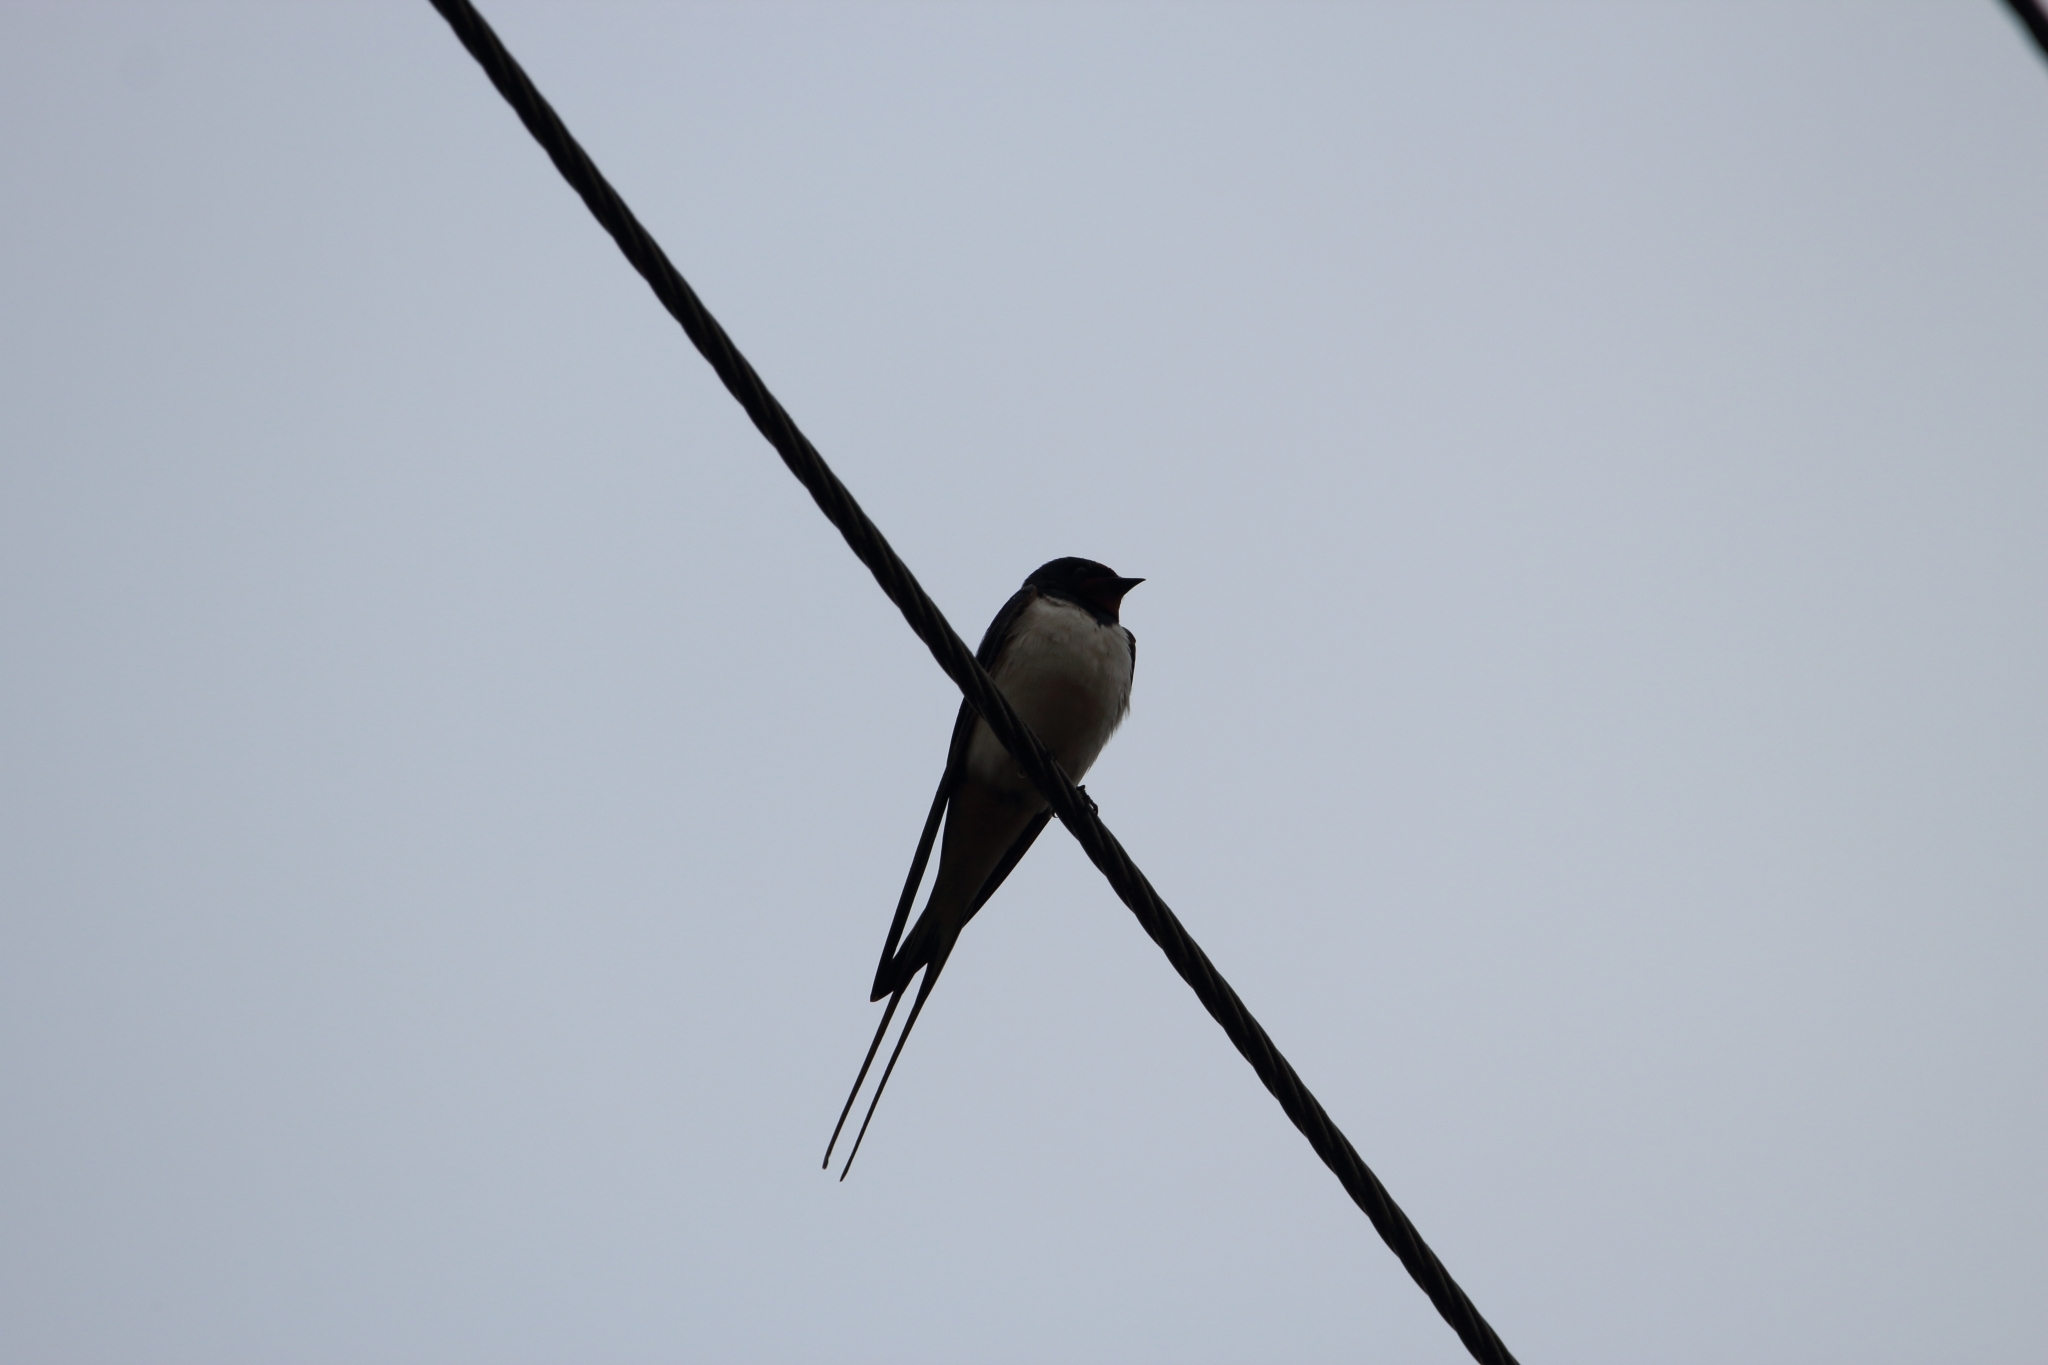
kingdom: Animalia
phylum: Chordata
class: Aves
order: Passeriformes
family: Hirundinidae
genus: Hirundo
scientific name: Hirundo rustica
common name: Barn swallow
